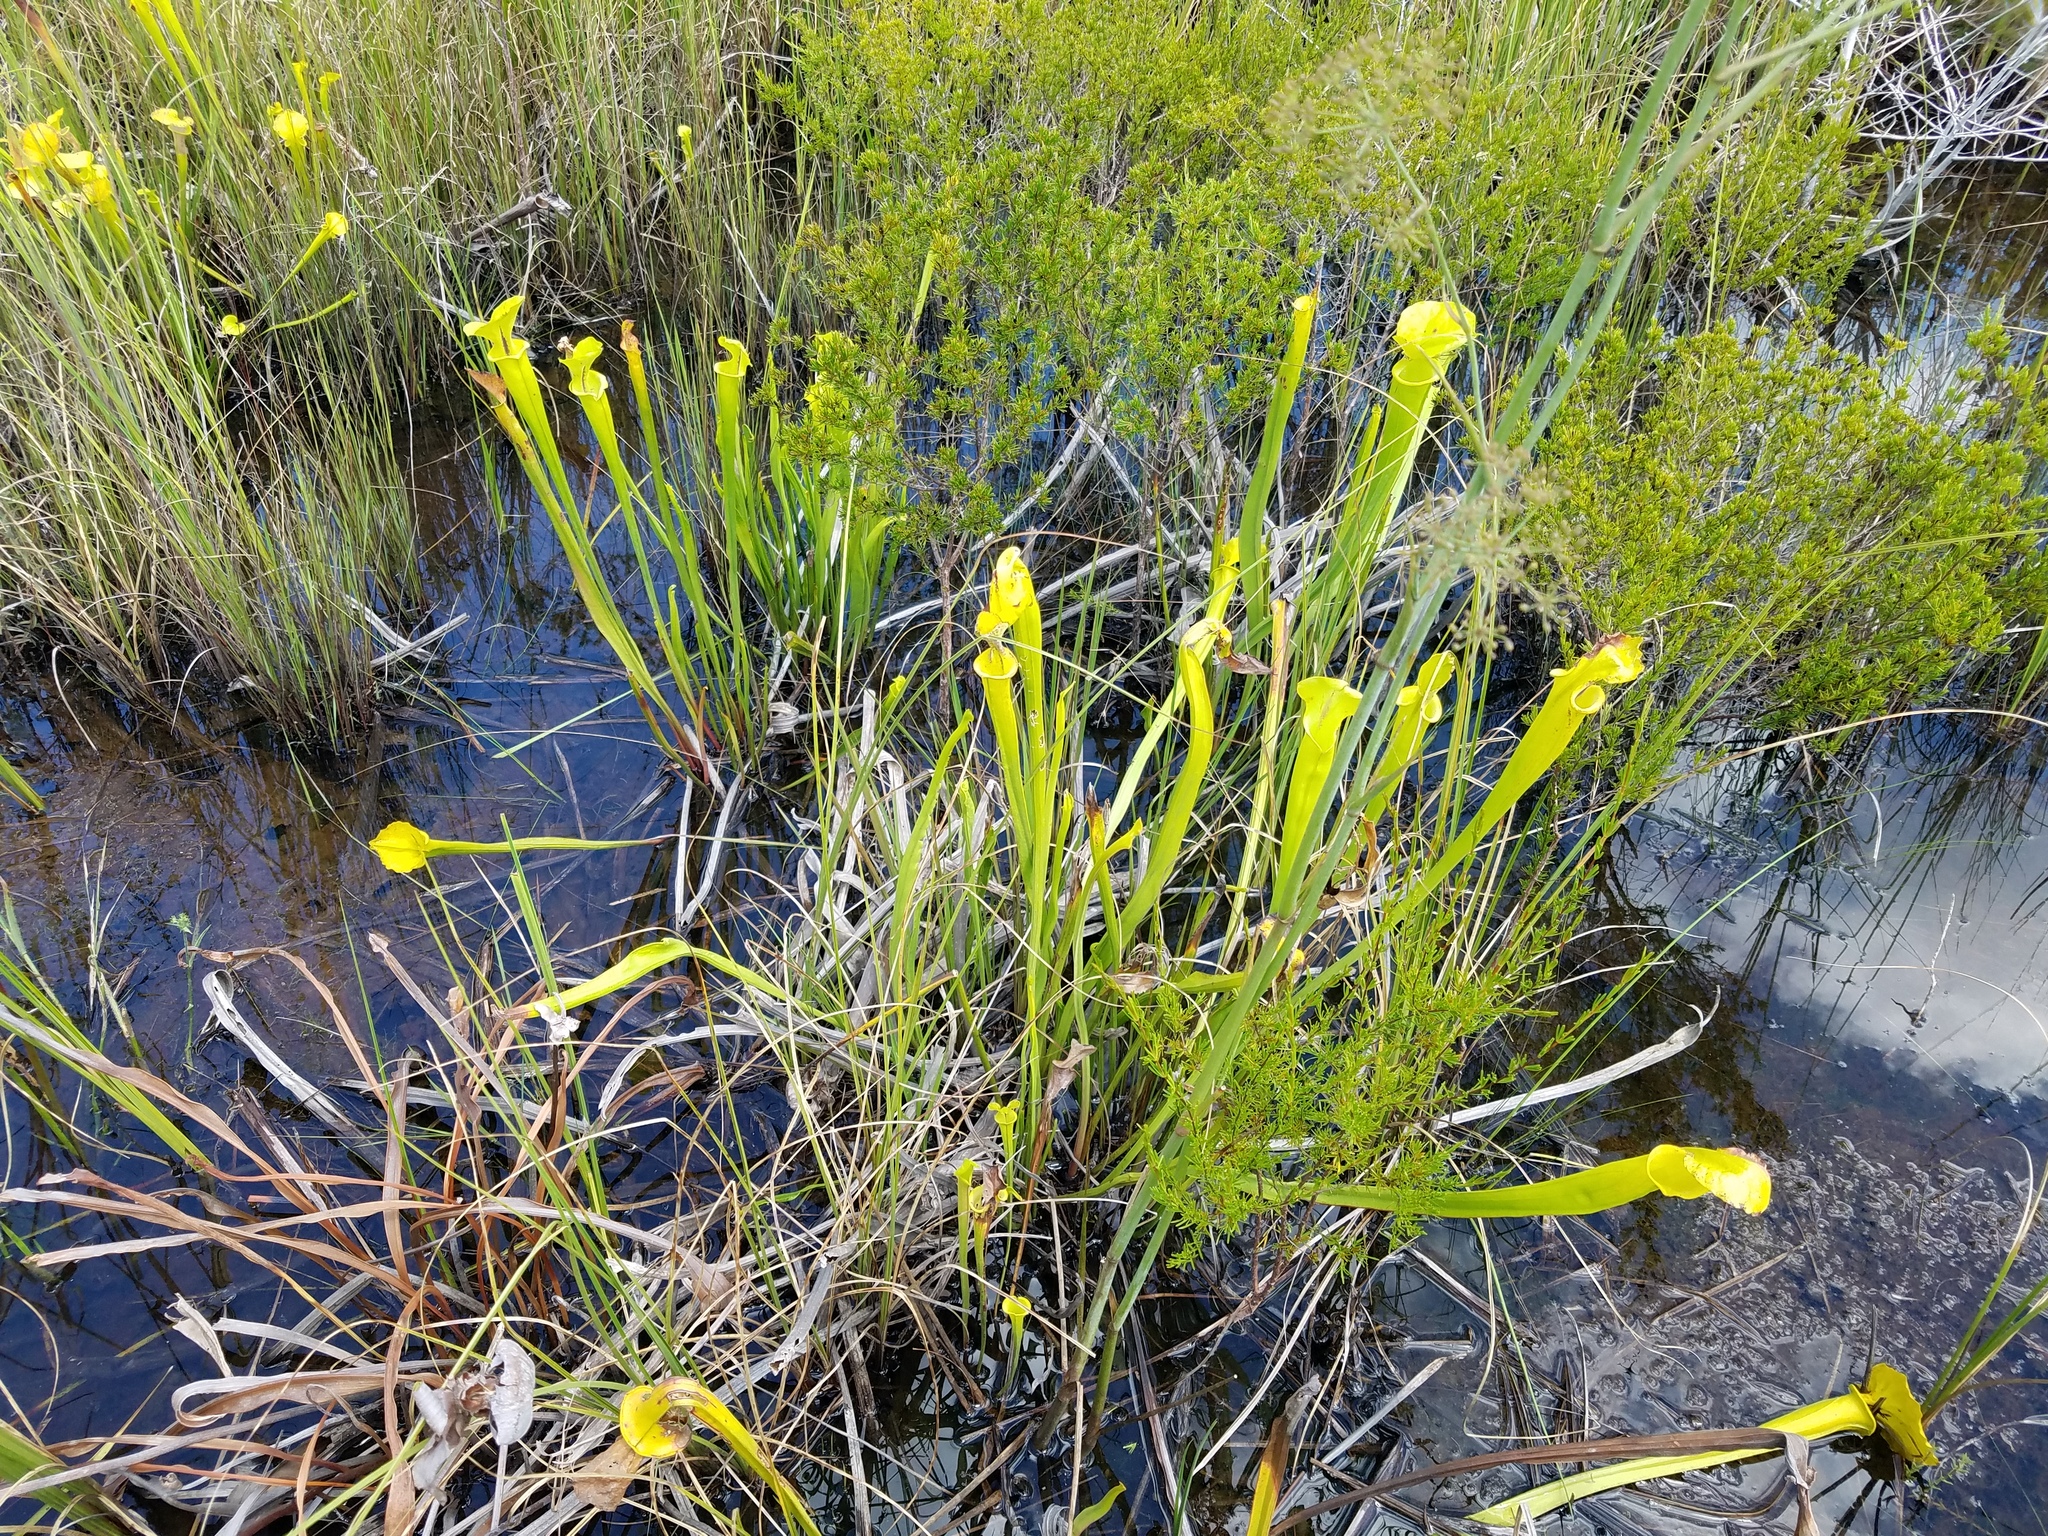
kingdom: Plantae
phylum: Tracheophyta
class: Magnoliopsida
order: Ericales
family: Sarraceniaceae
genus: Sarracenia
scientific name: Sarracenia flava
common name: Trumpets
